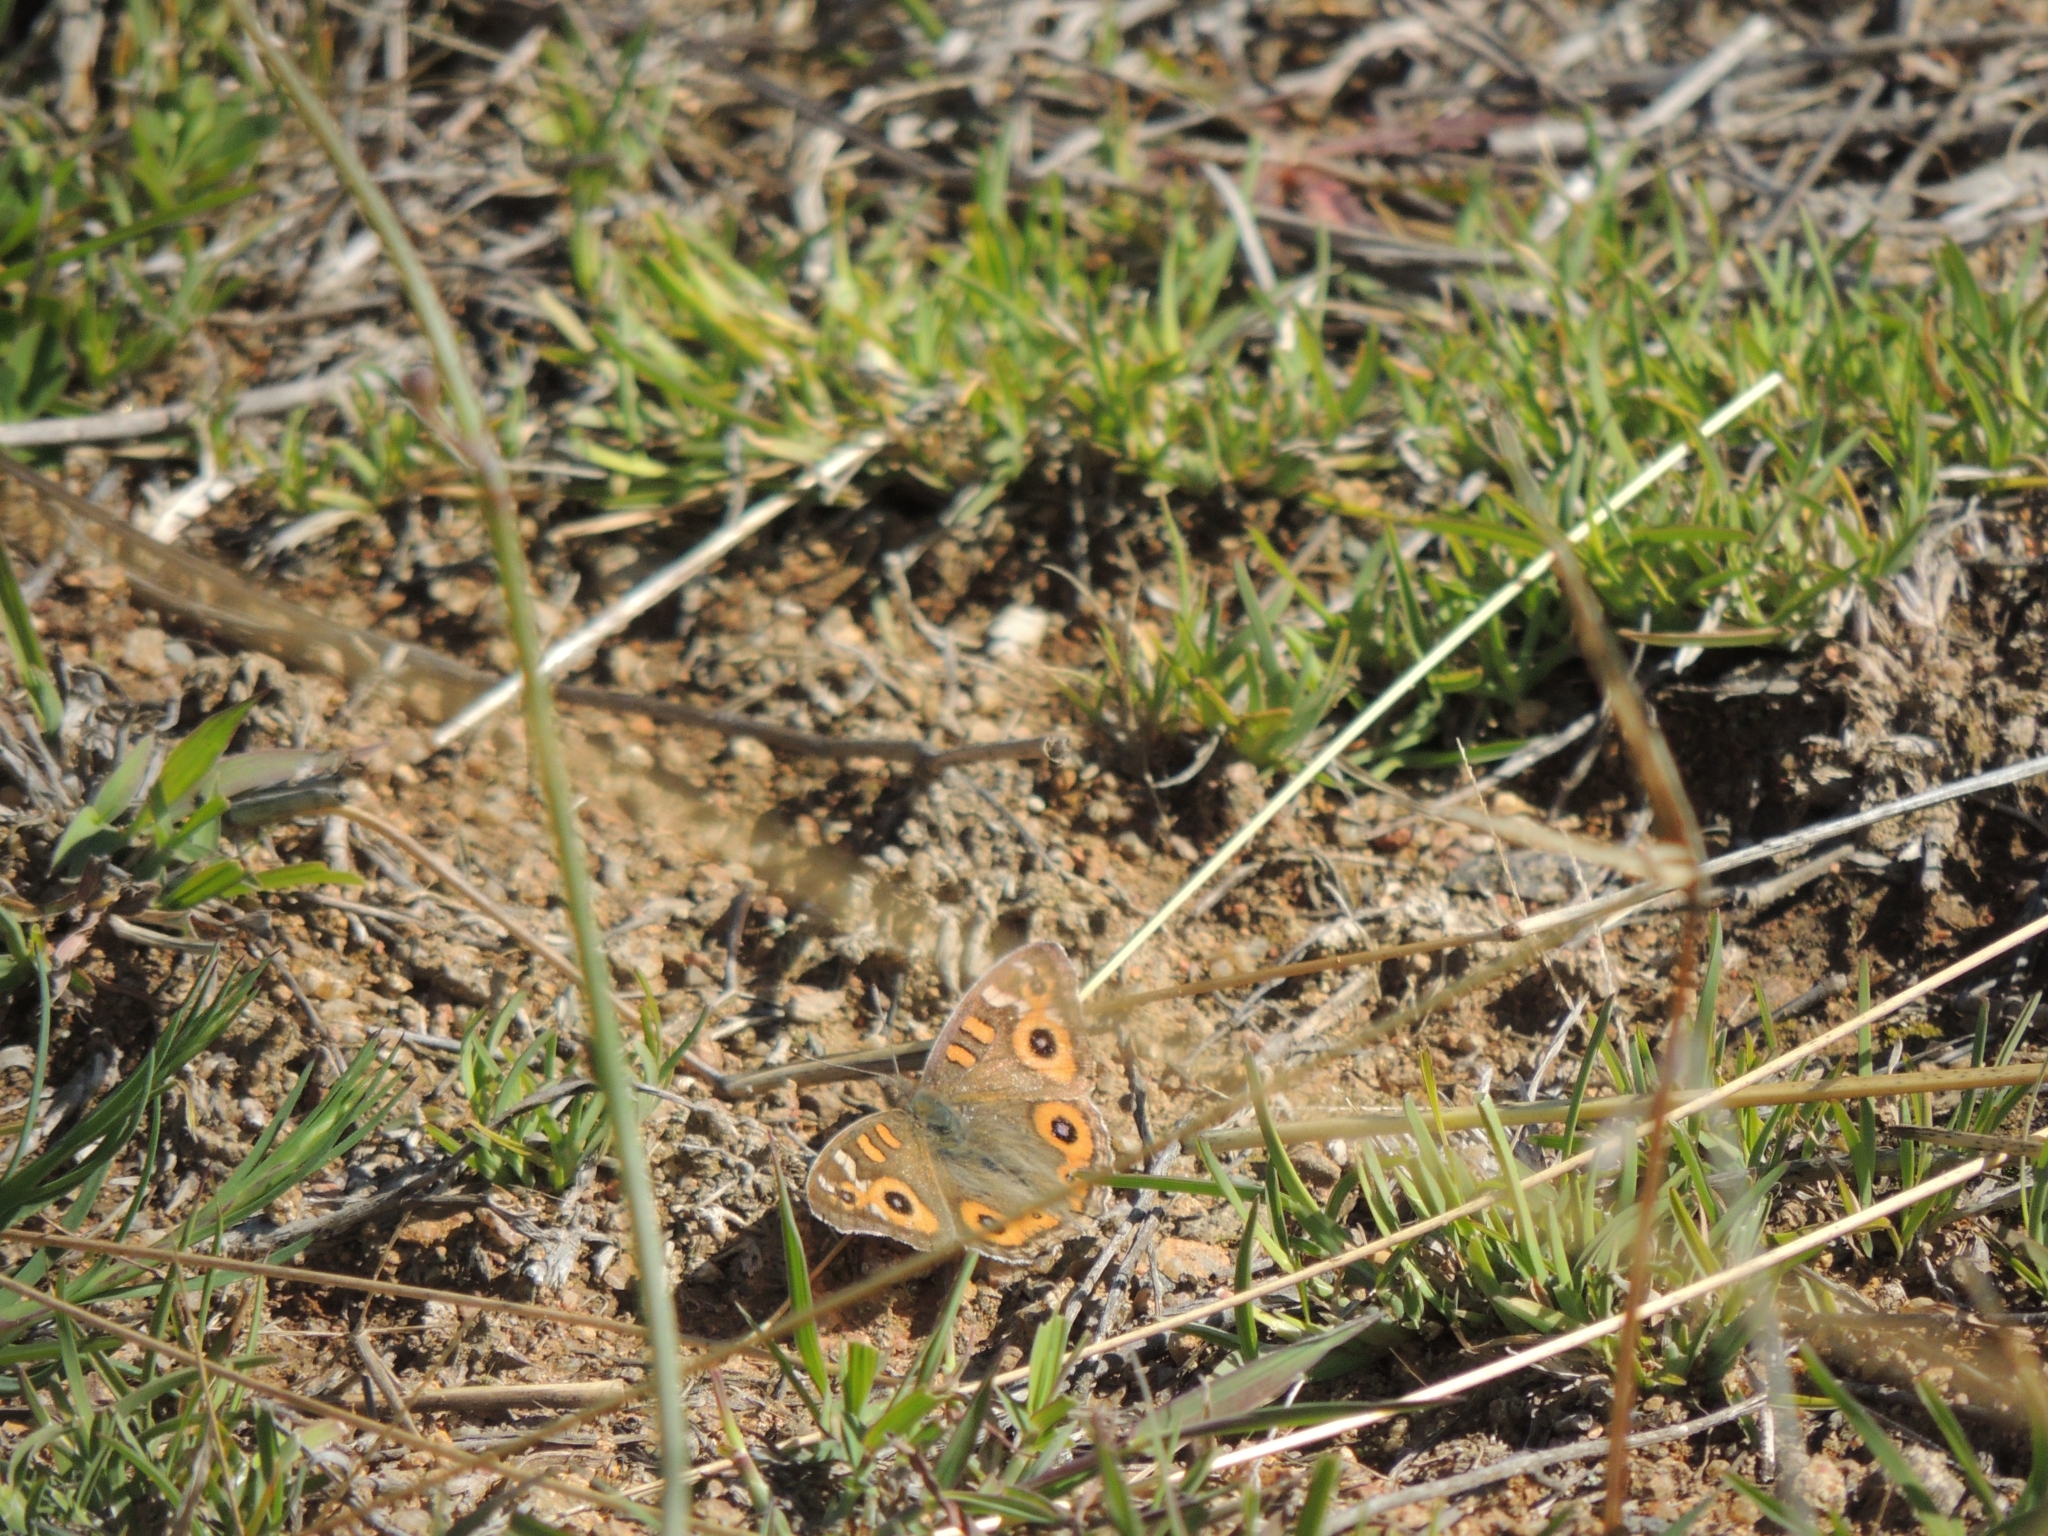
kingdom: Animalia
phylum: Arthropoda
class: Insecta
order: Lepidoptera
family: Nymphalidae
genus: Junonia
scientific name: Junonia villida
